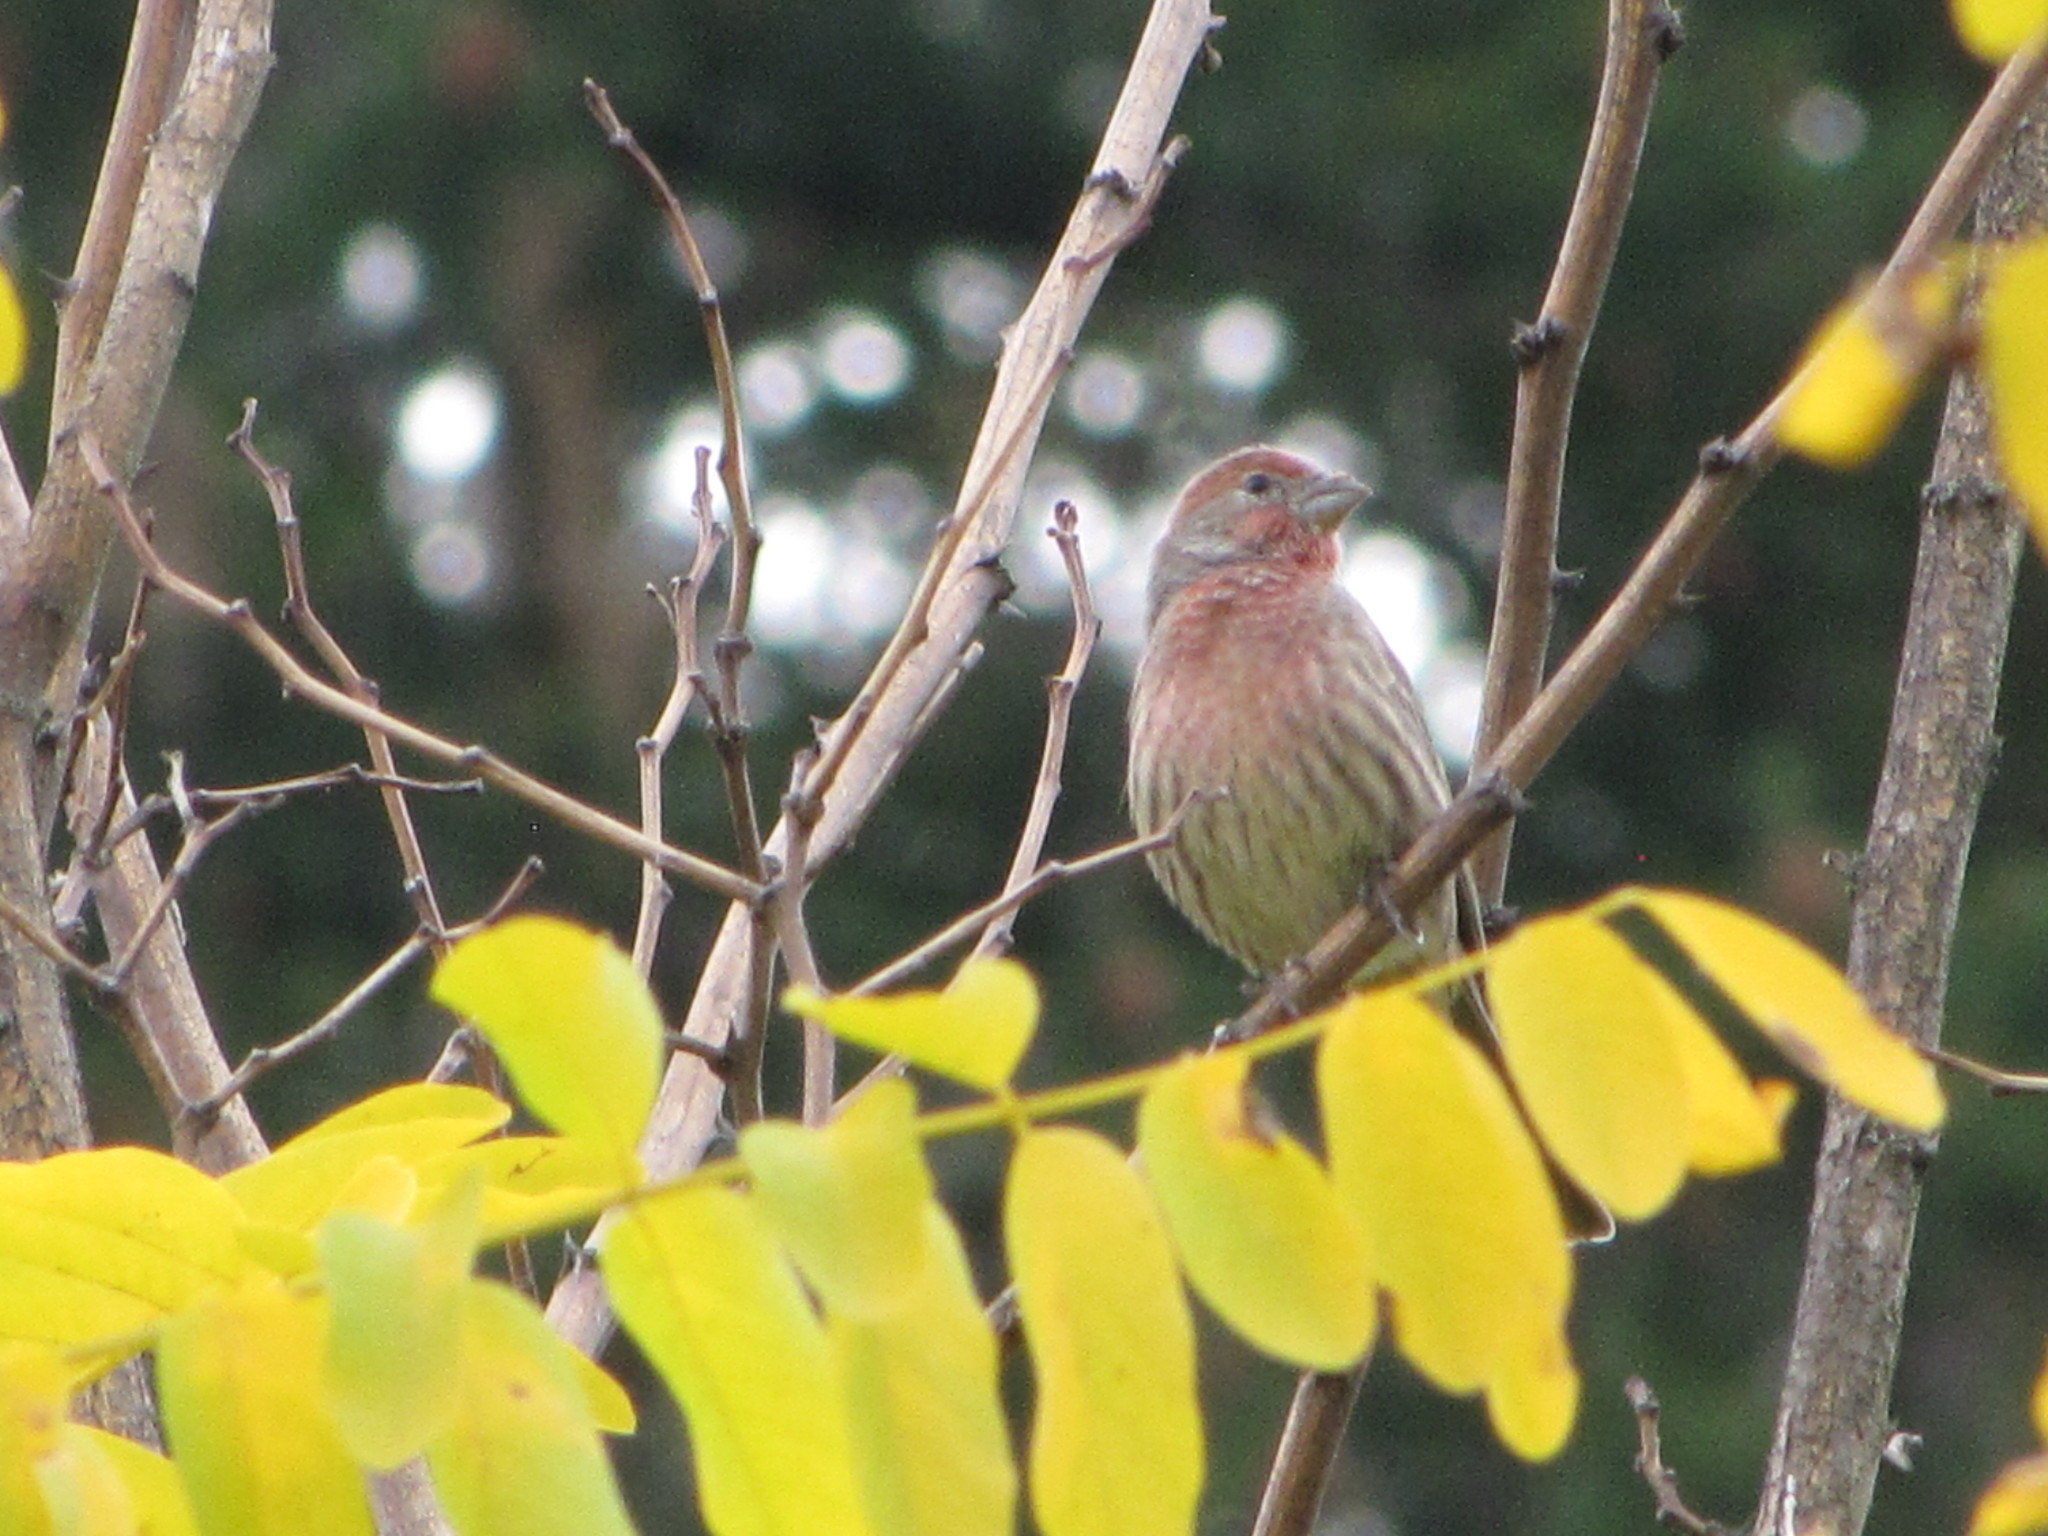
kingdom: Animalia
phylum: Chordata
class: Aves
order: Passeriformes
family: Fringillidae
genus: Haemorhous
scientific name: Haemorhous mexicanus
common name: House finch
